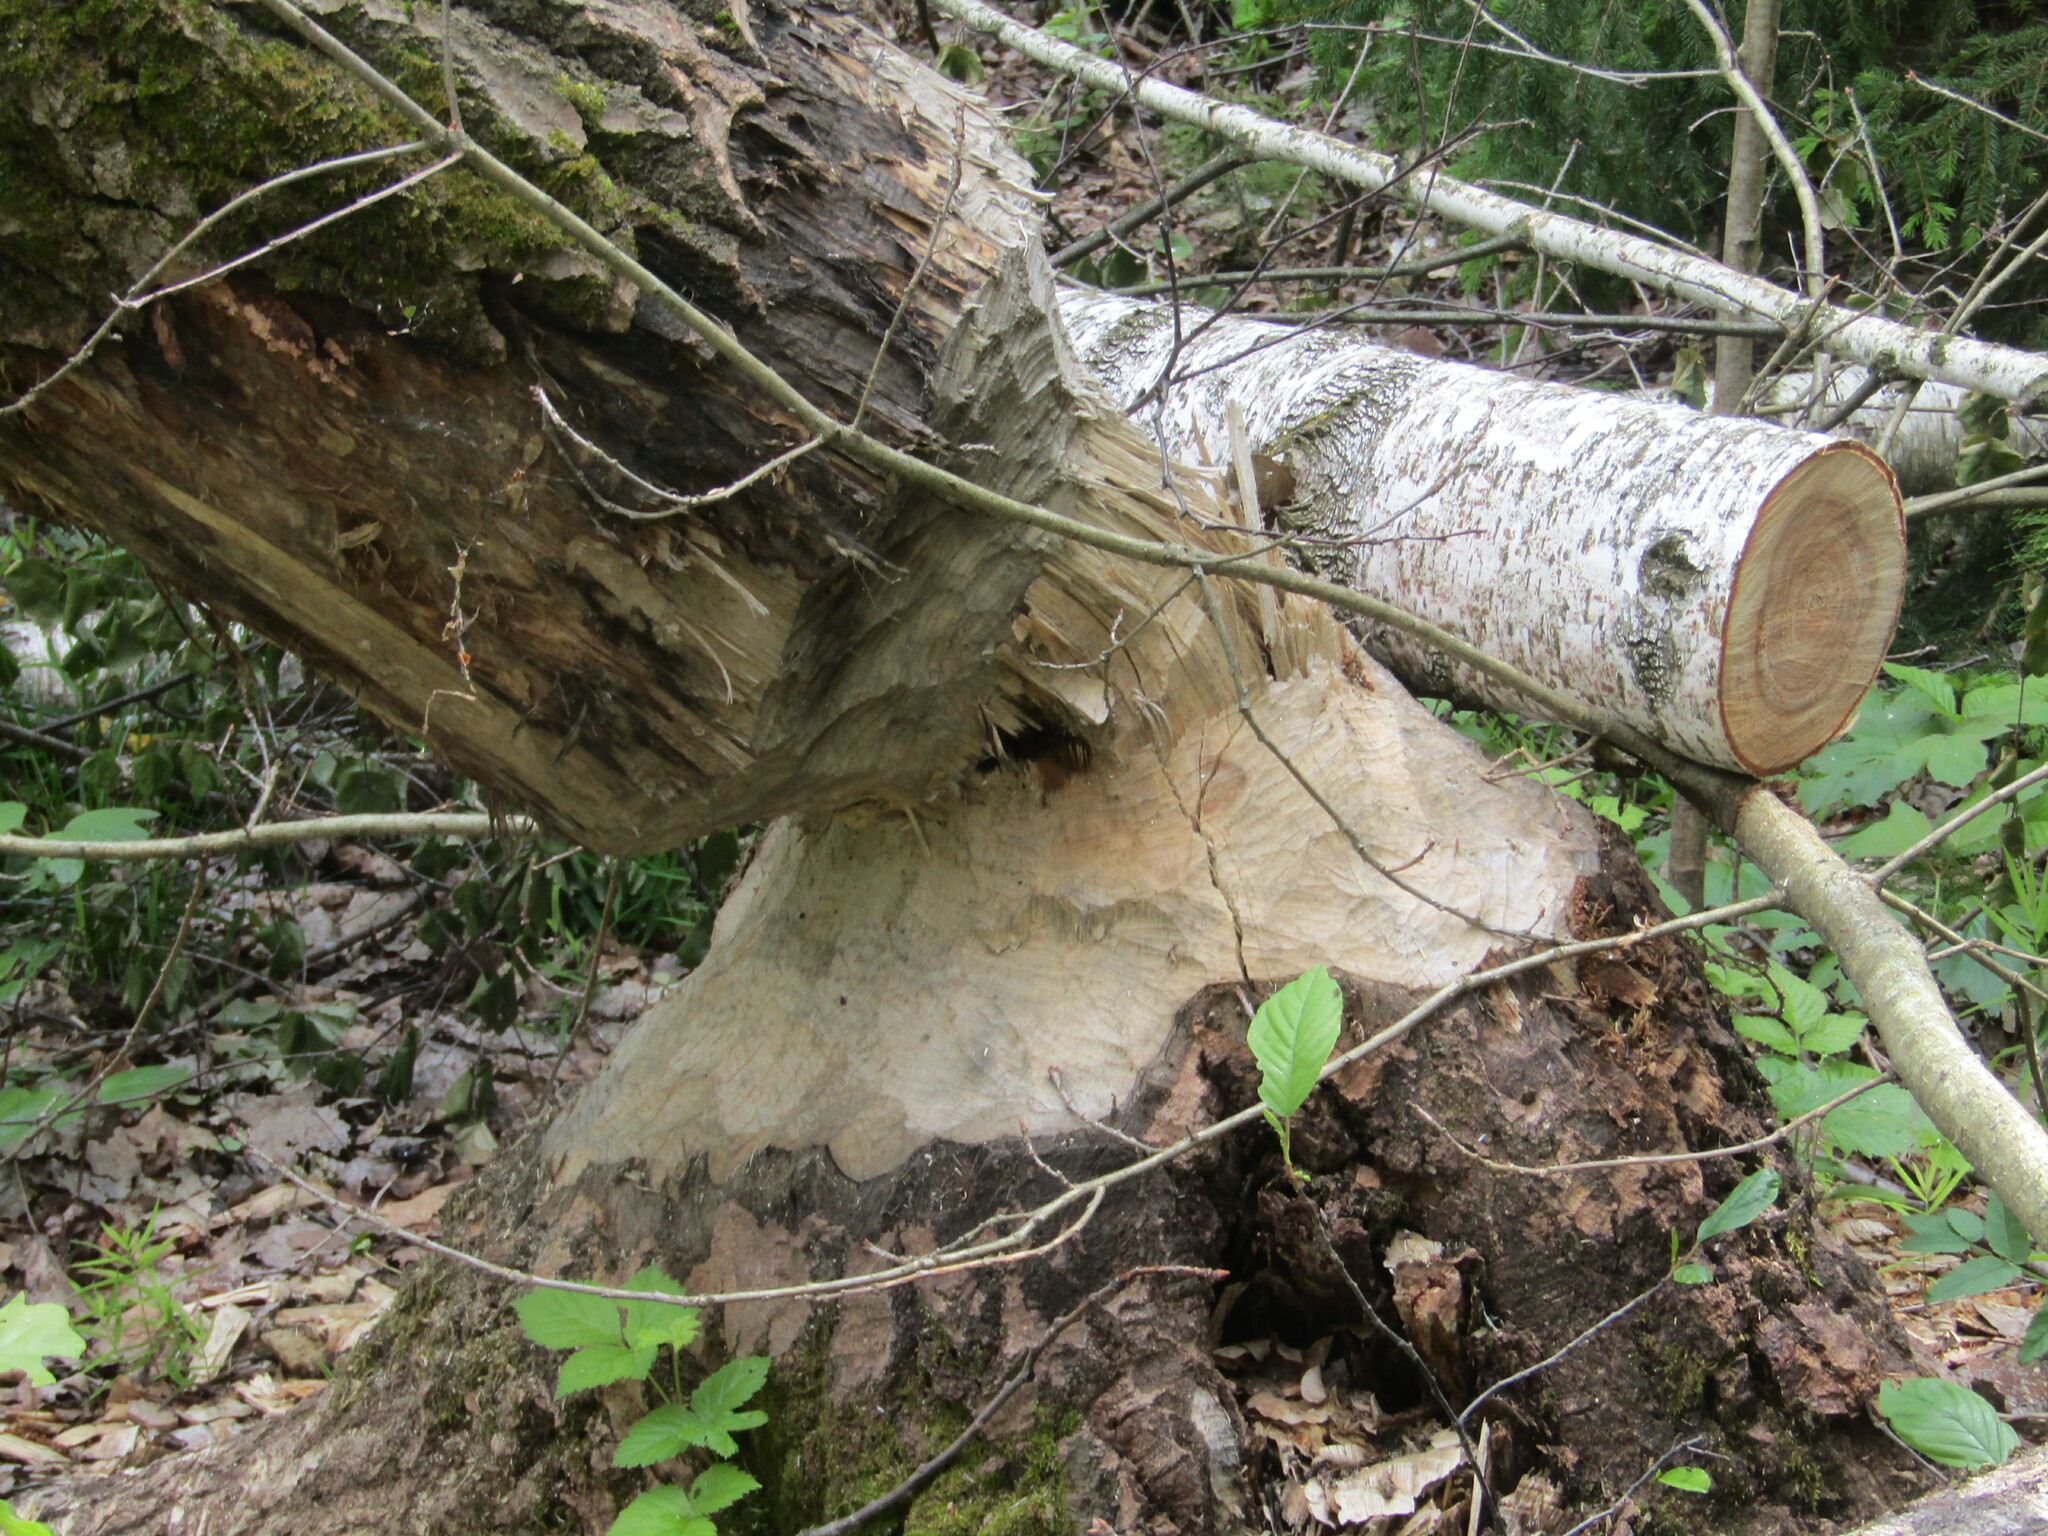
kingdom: Animalia
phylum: Chordata
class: Mammalia
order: Rodentia
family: Castoridae
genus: Castor
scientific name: Castor fiber
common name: Eurasian beaver
